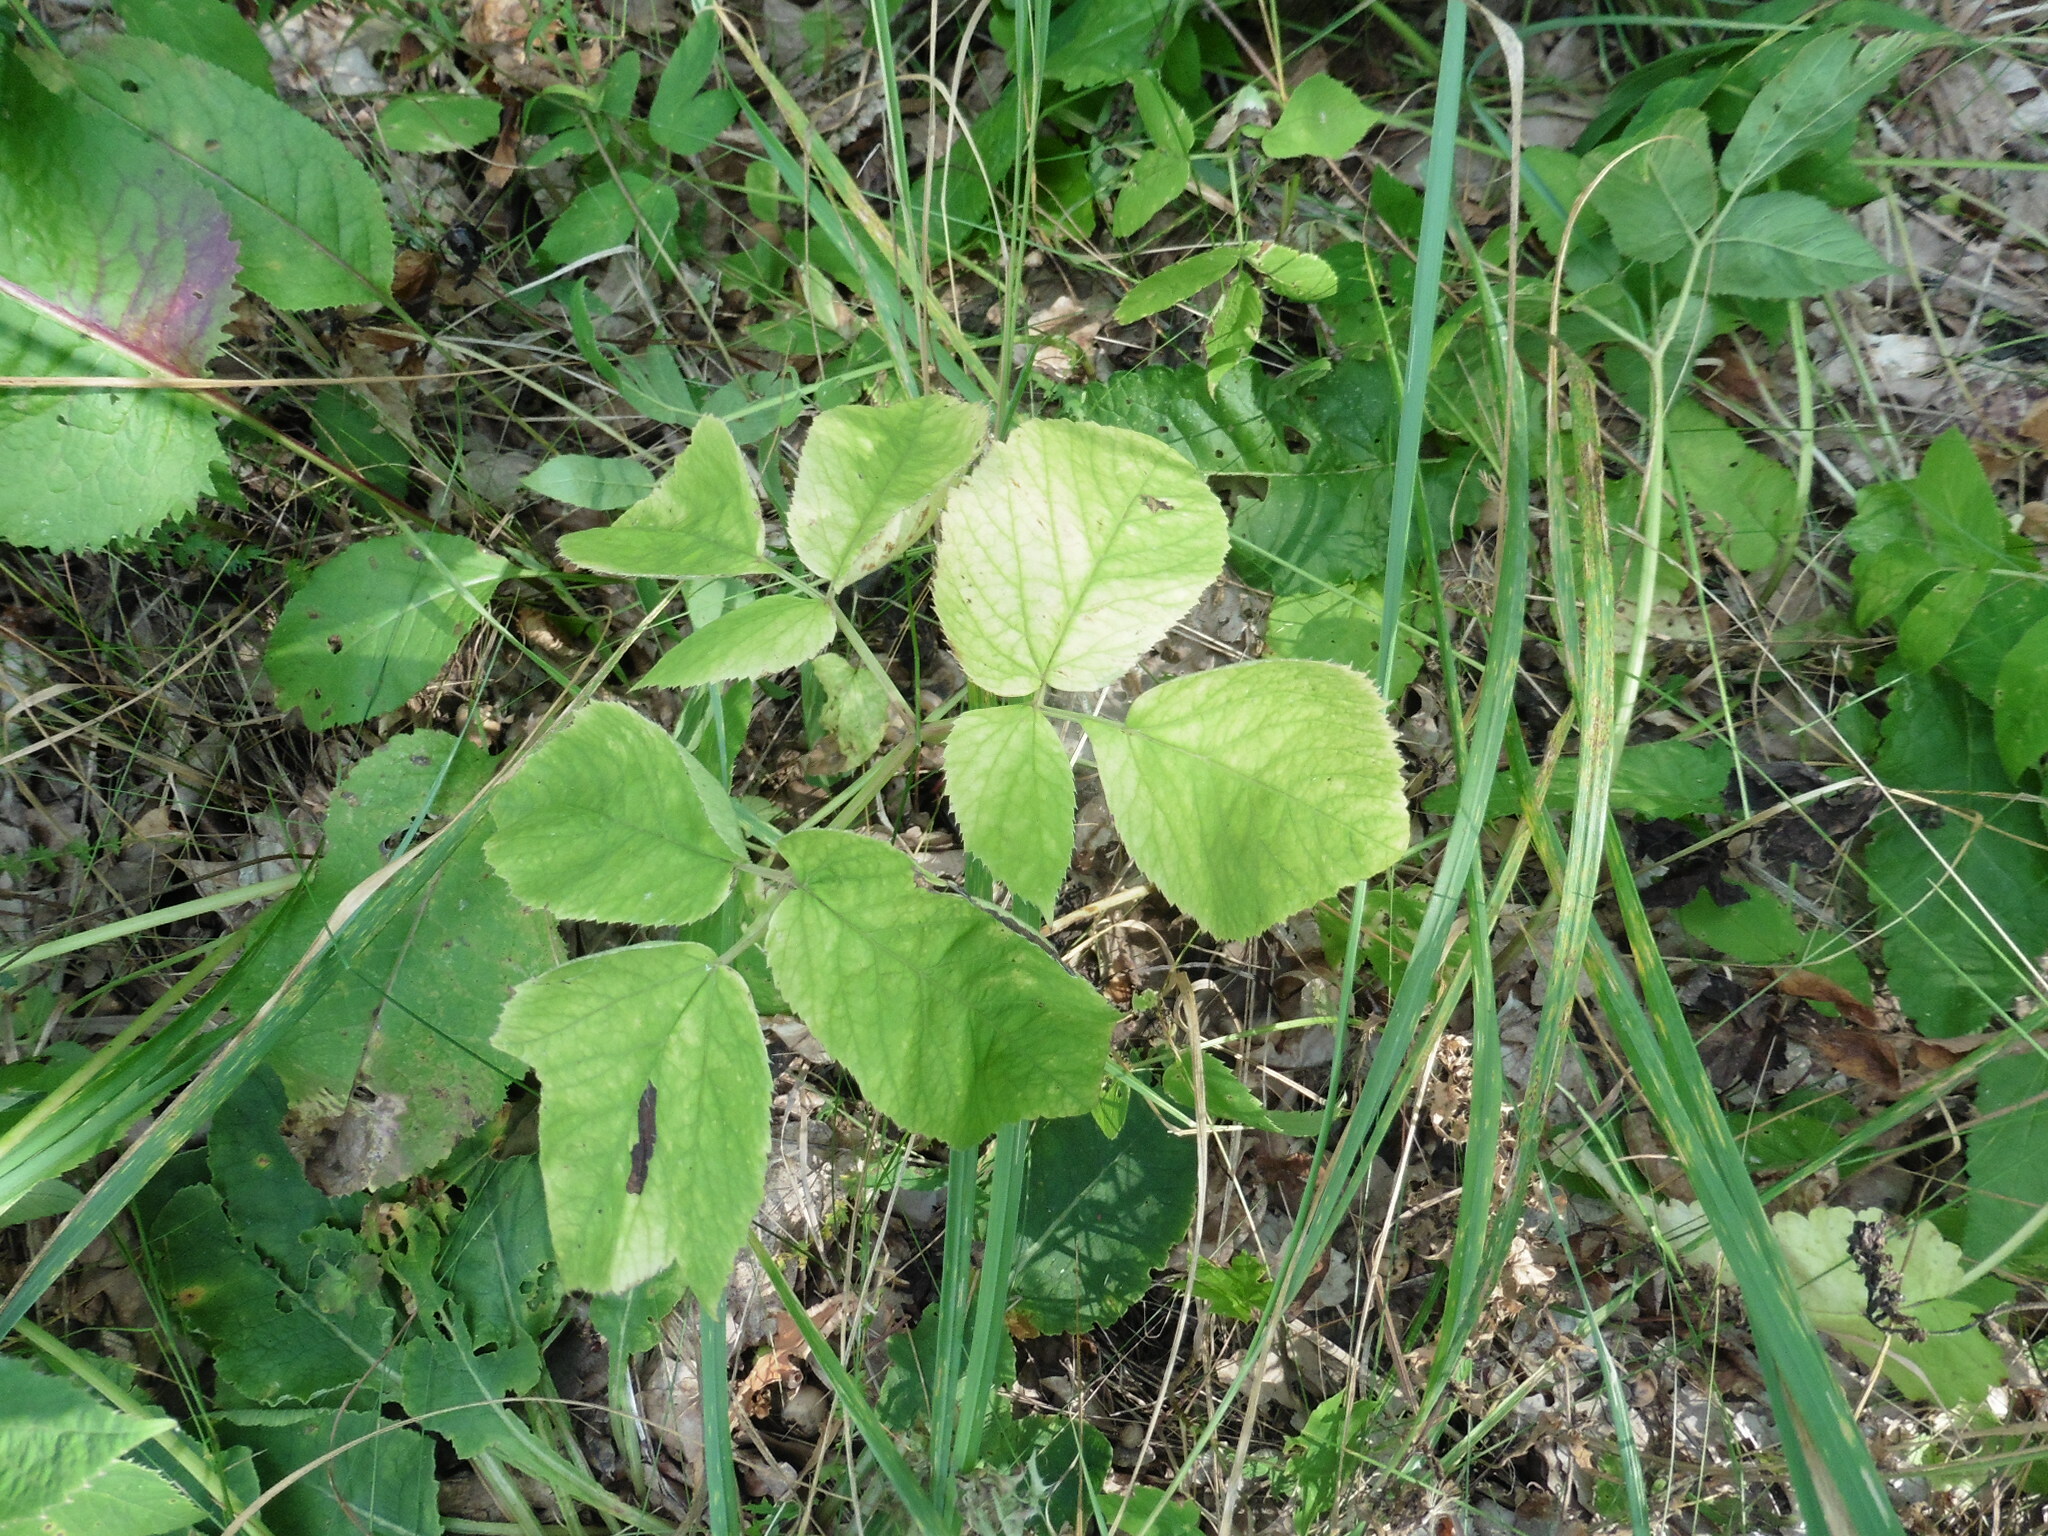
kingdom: Plantae
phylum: Tracheophyta
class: Magnoliopsida
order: Apiales
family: Apiaceae
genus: Aegopodium
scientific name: Aegopodium podagraria
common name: Ground-elder
